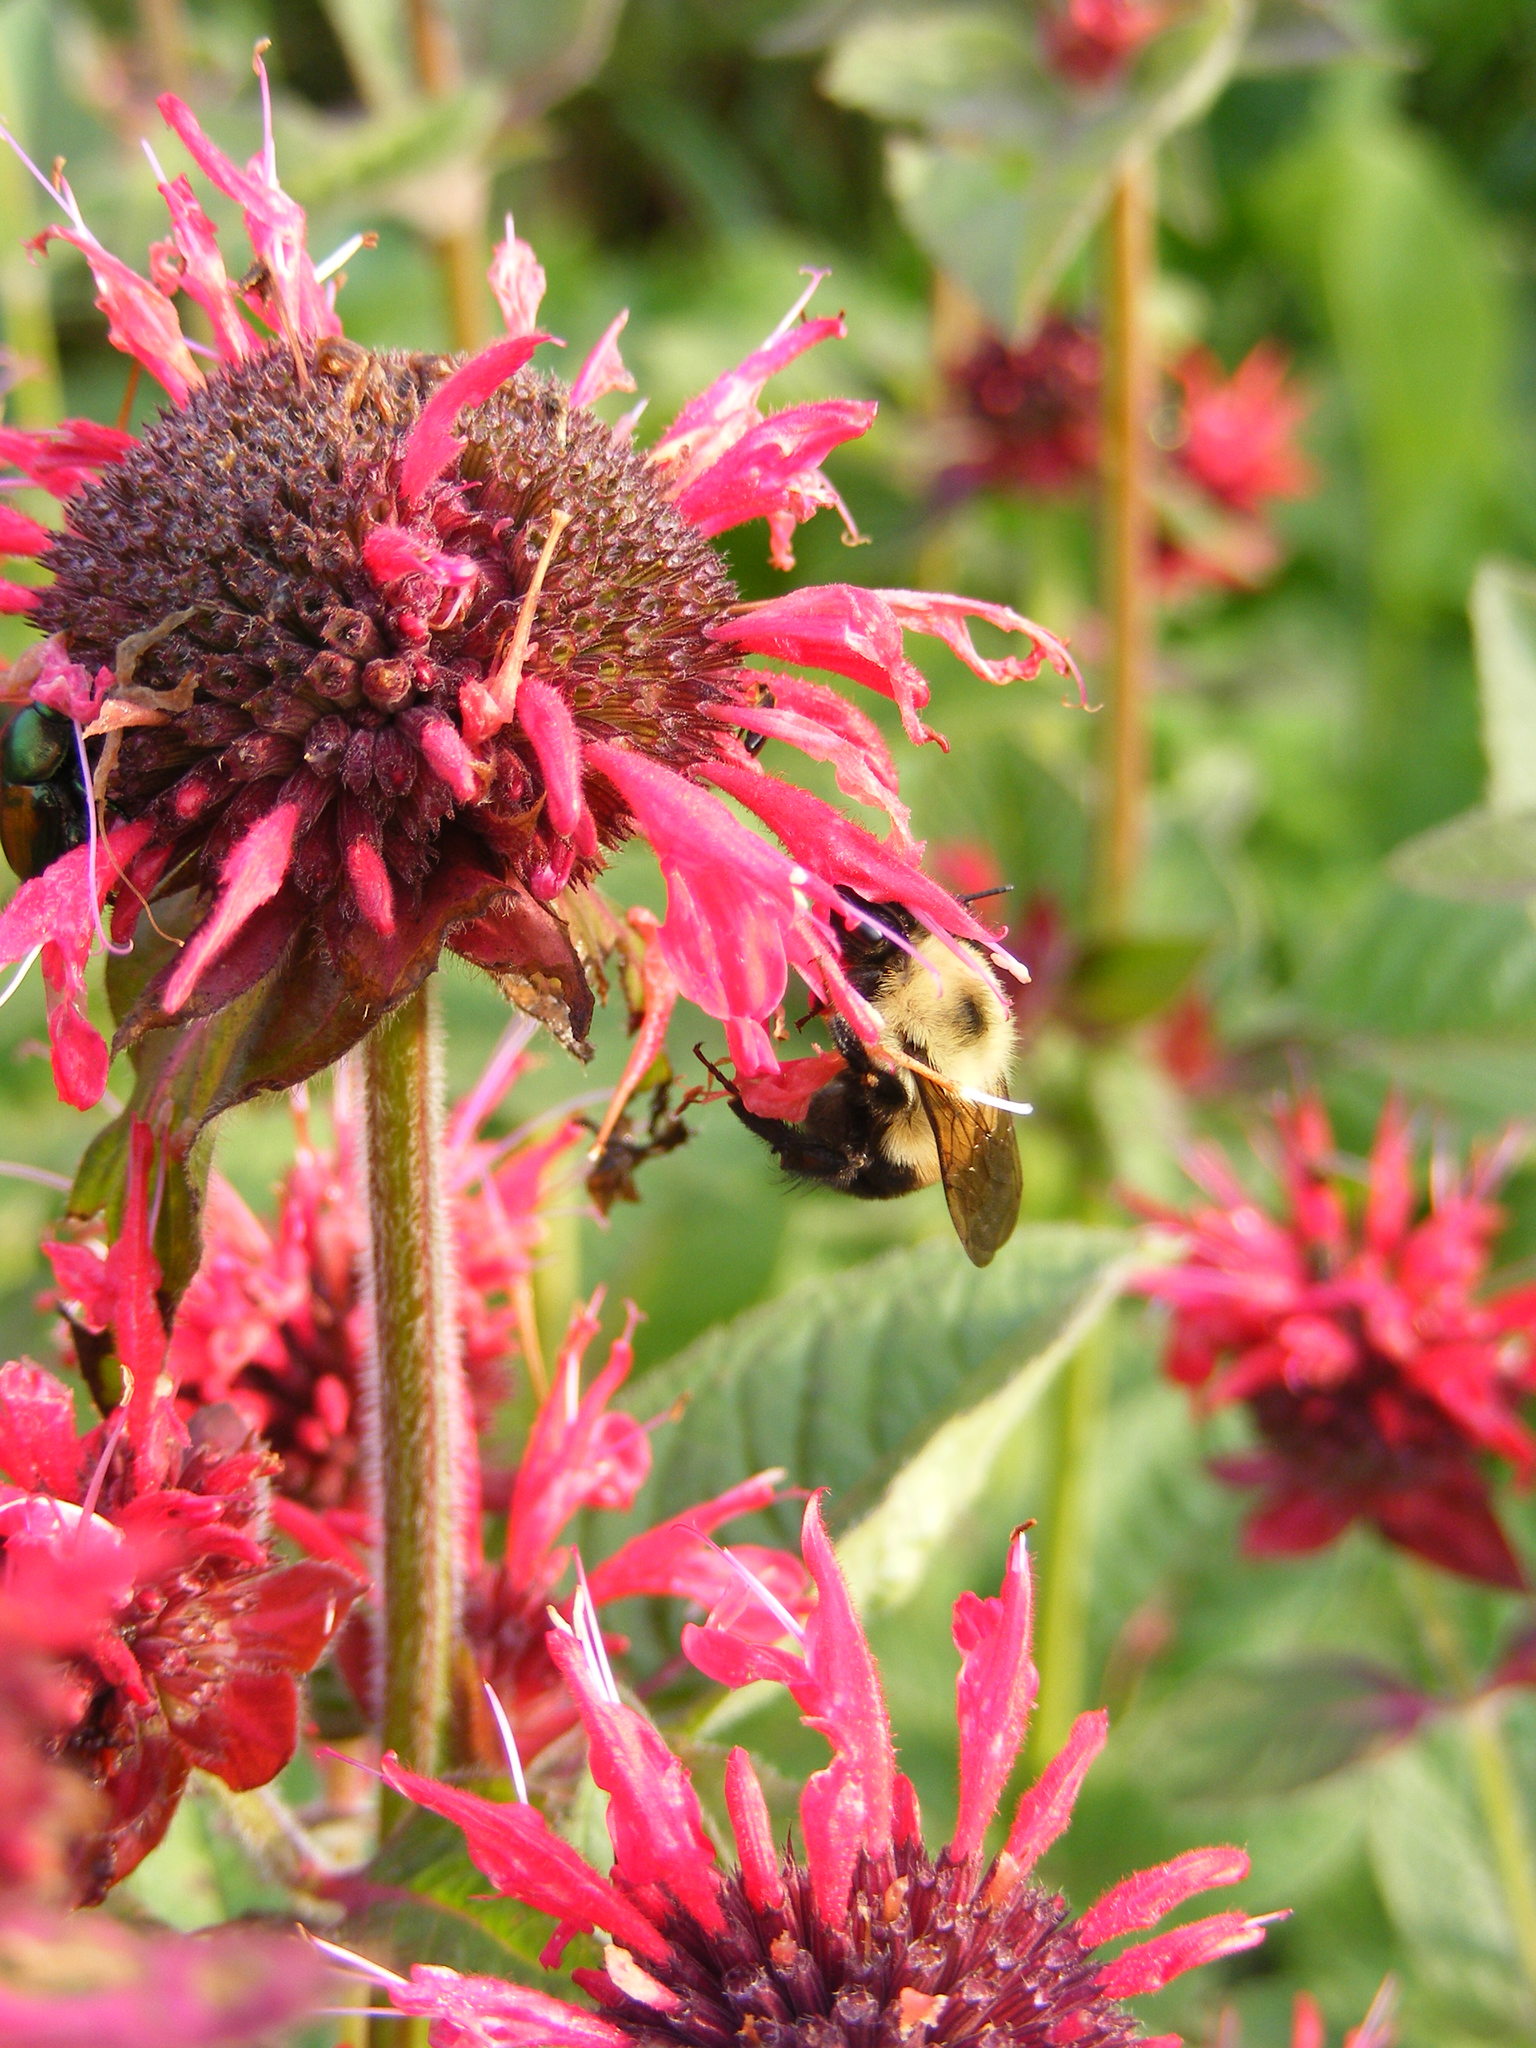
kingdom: Animalia
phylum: Arthropoda
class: Insecta
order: Hymenoptera
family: Apidae
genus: Bombus
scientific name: Bombus bimaculatus
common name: Two-spotted bumble bee
